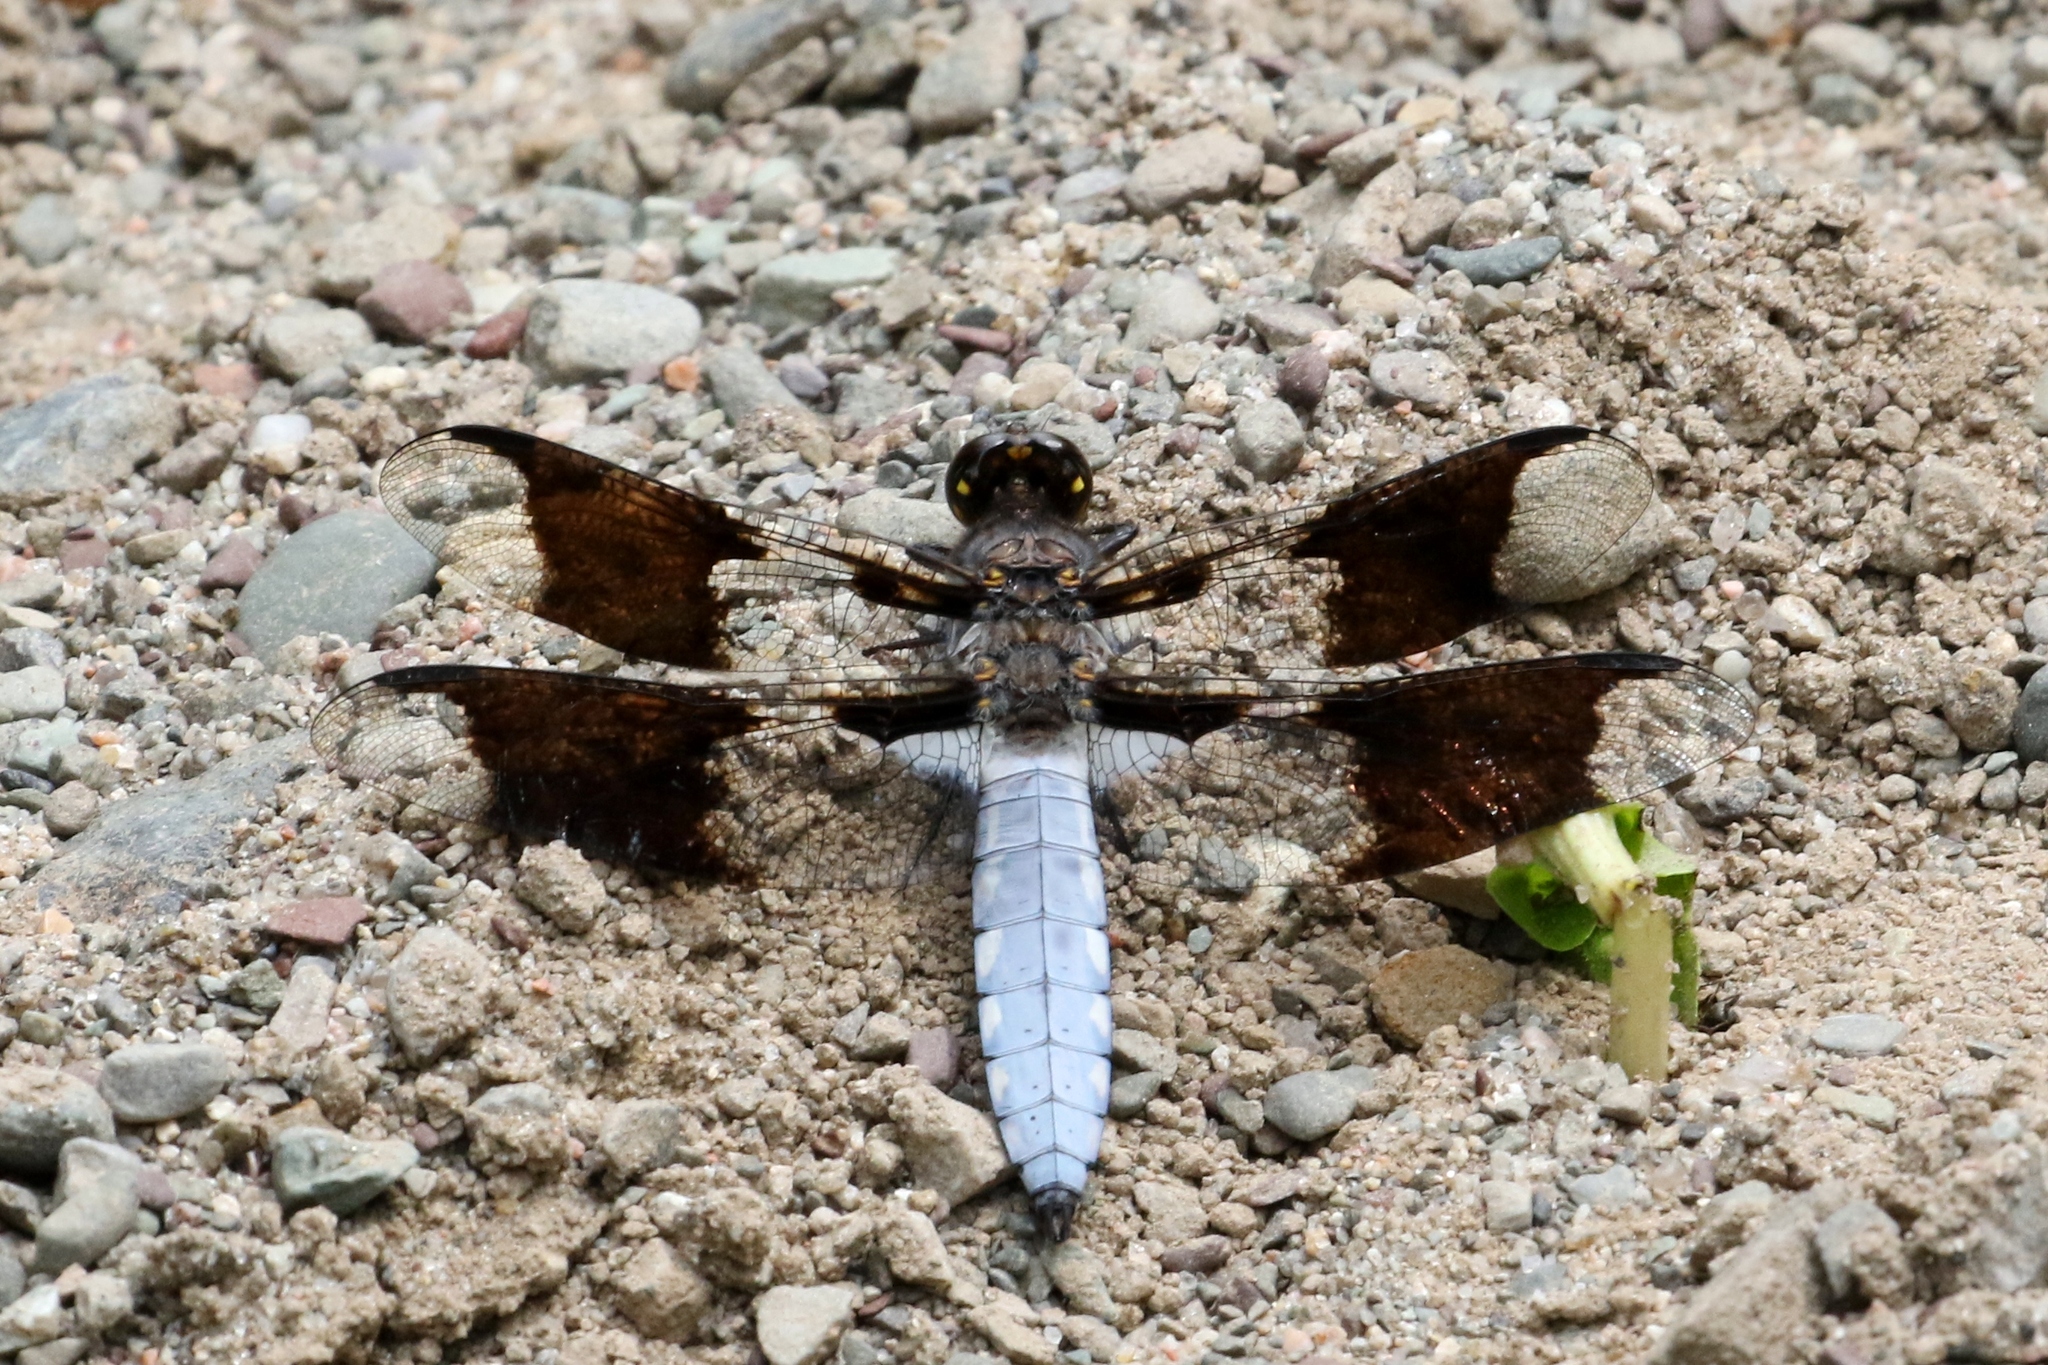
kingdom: Animalia
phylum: Arthropoda
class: Insecta
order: Odonata
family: Libellulidae
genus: Plathemis
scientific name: Plathemis lydia
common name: Common whitetail
